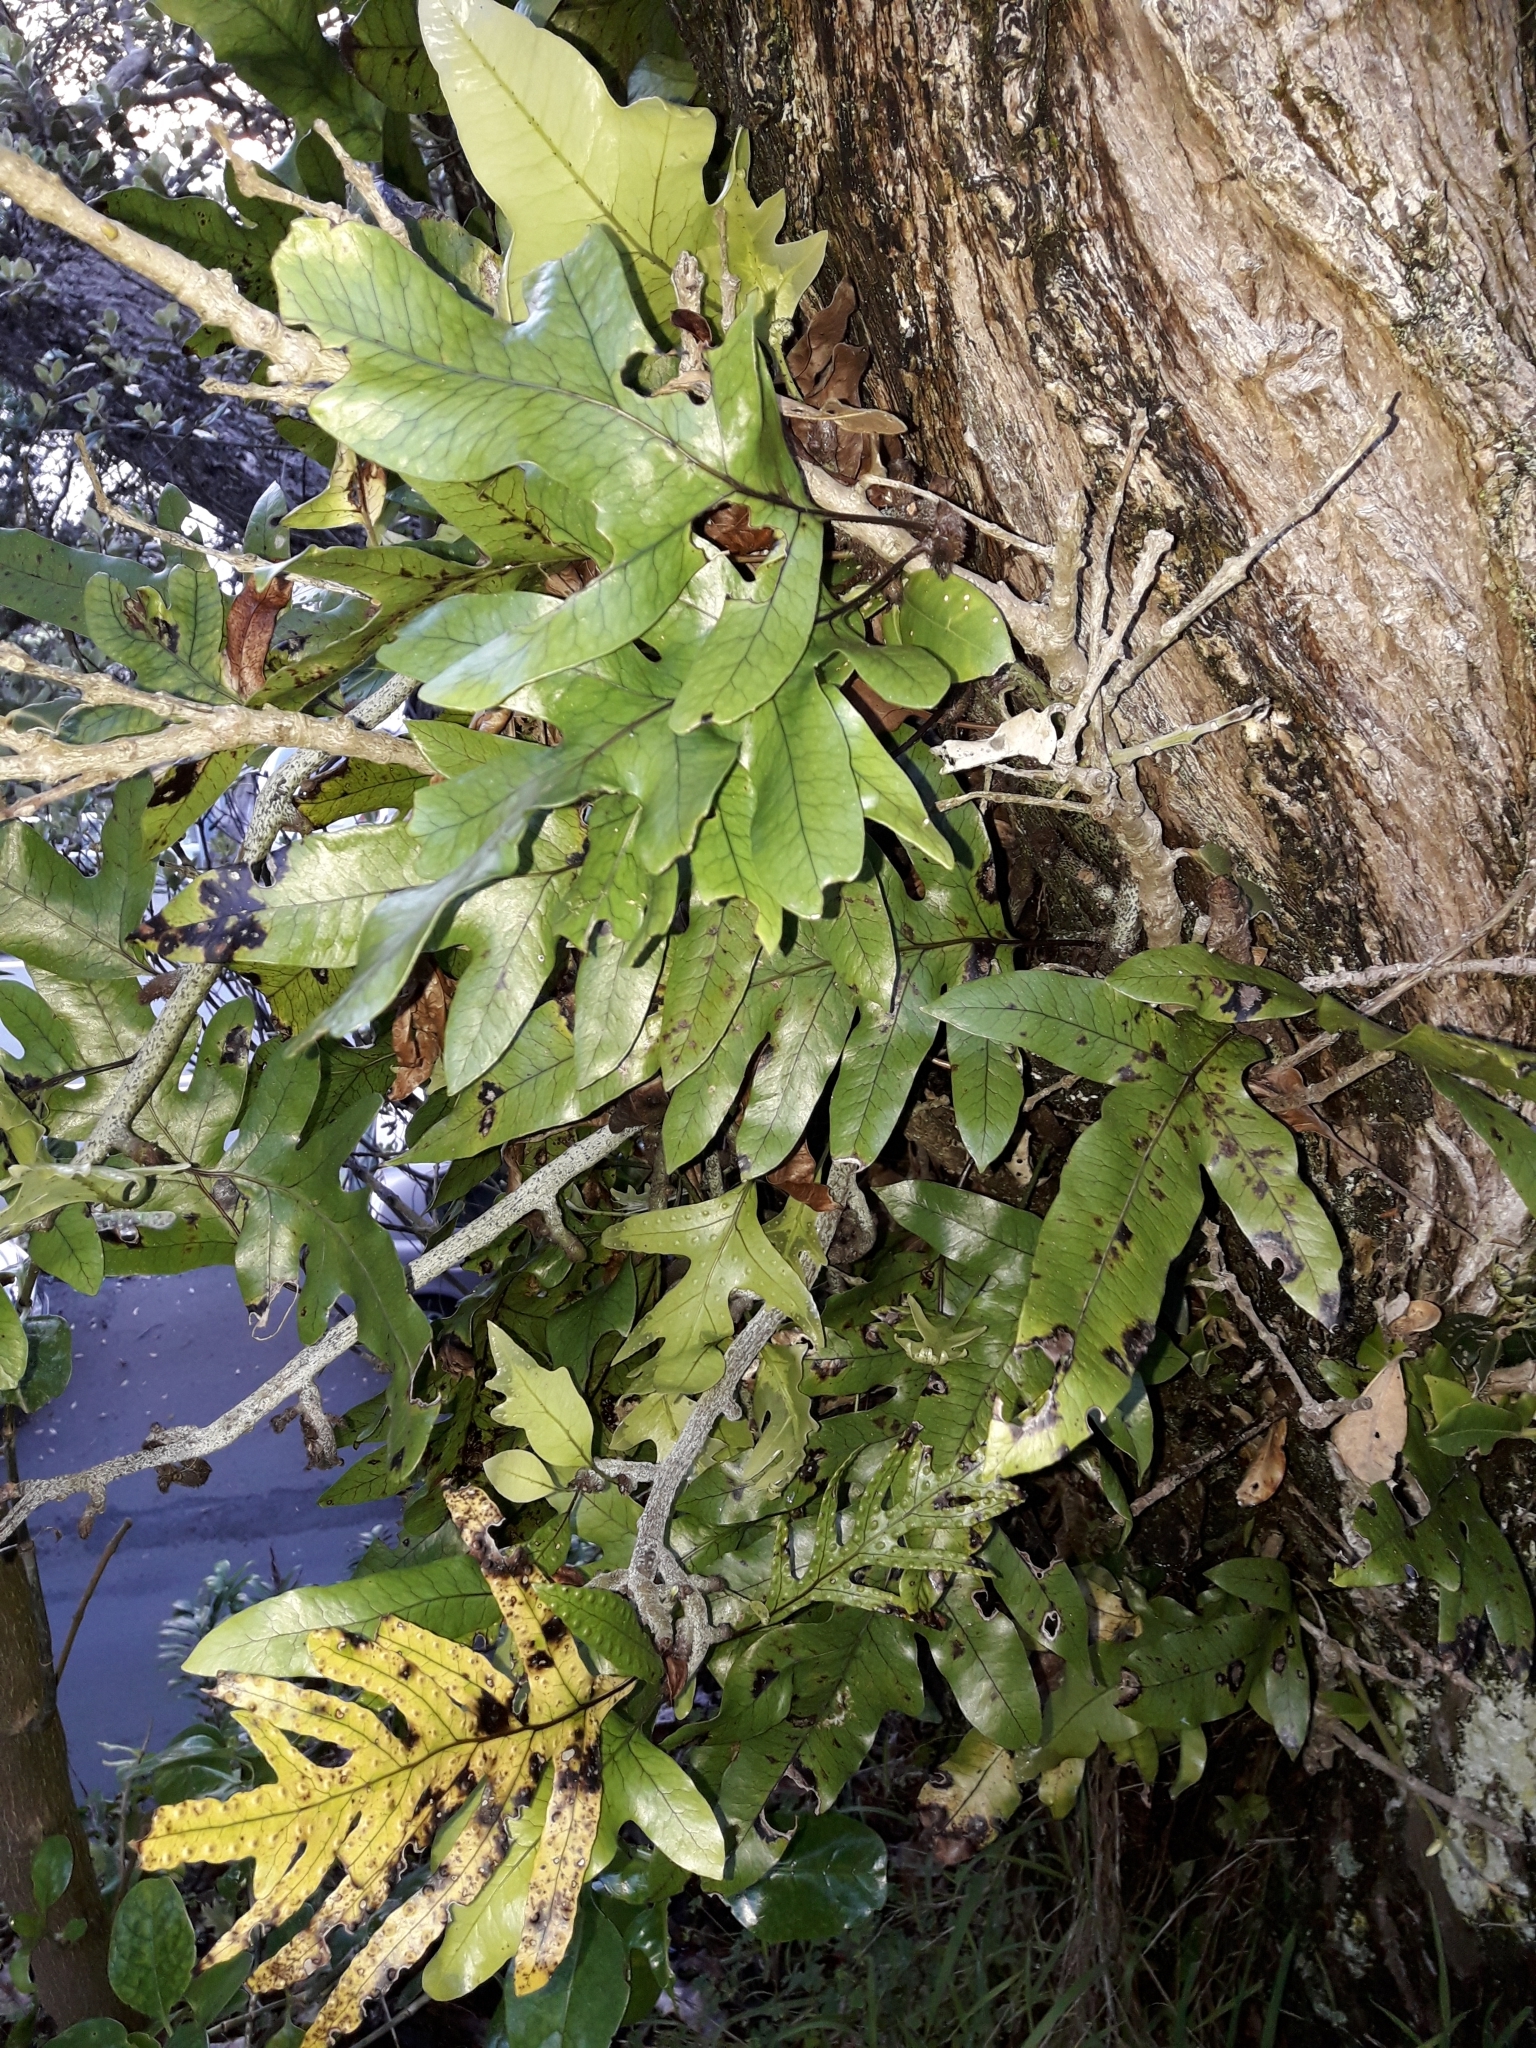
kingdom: Plantae
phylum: Tracheophyta
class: Polypodiopsida
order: Polypodiales
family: Polypodiaceae
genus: Lecanopteris
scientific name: Lecanopteris pustulata
